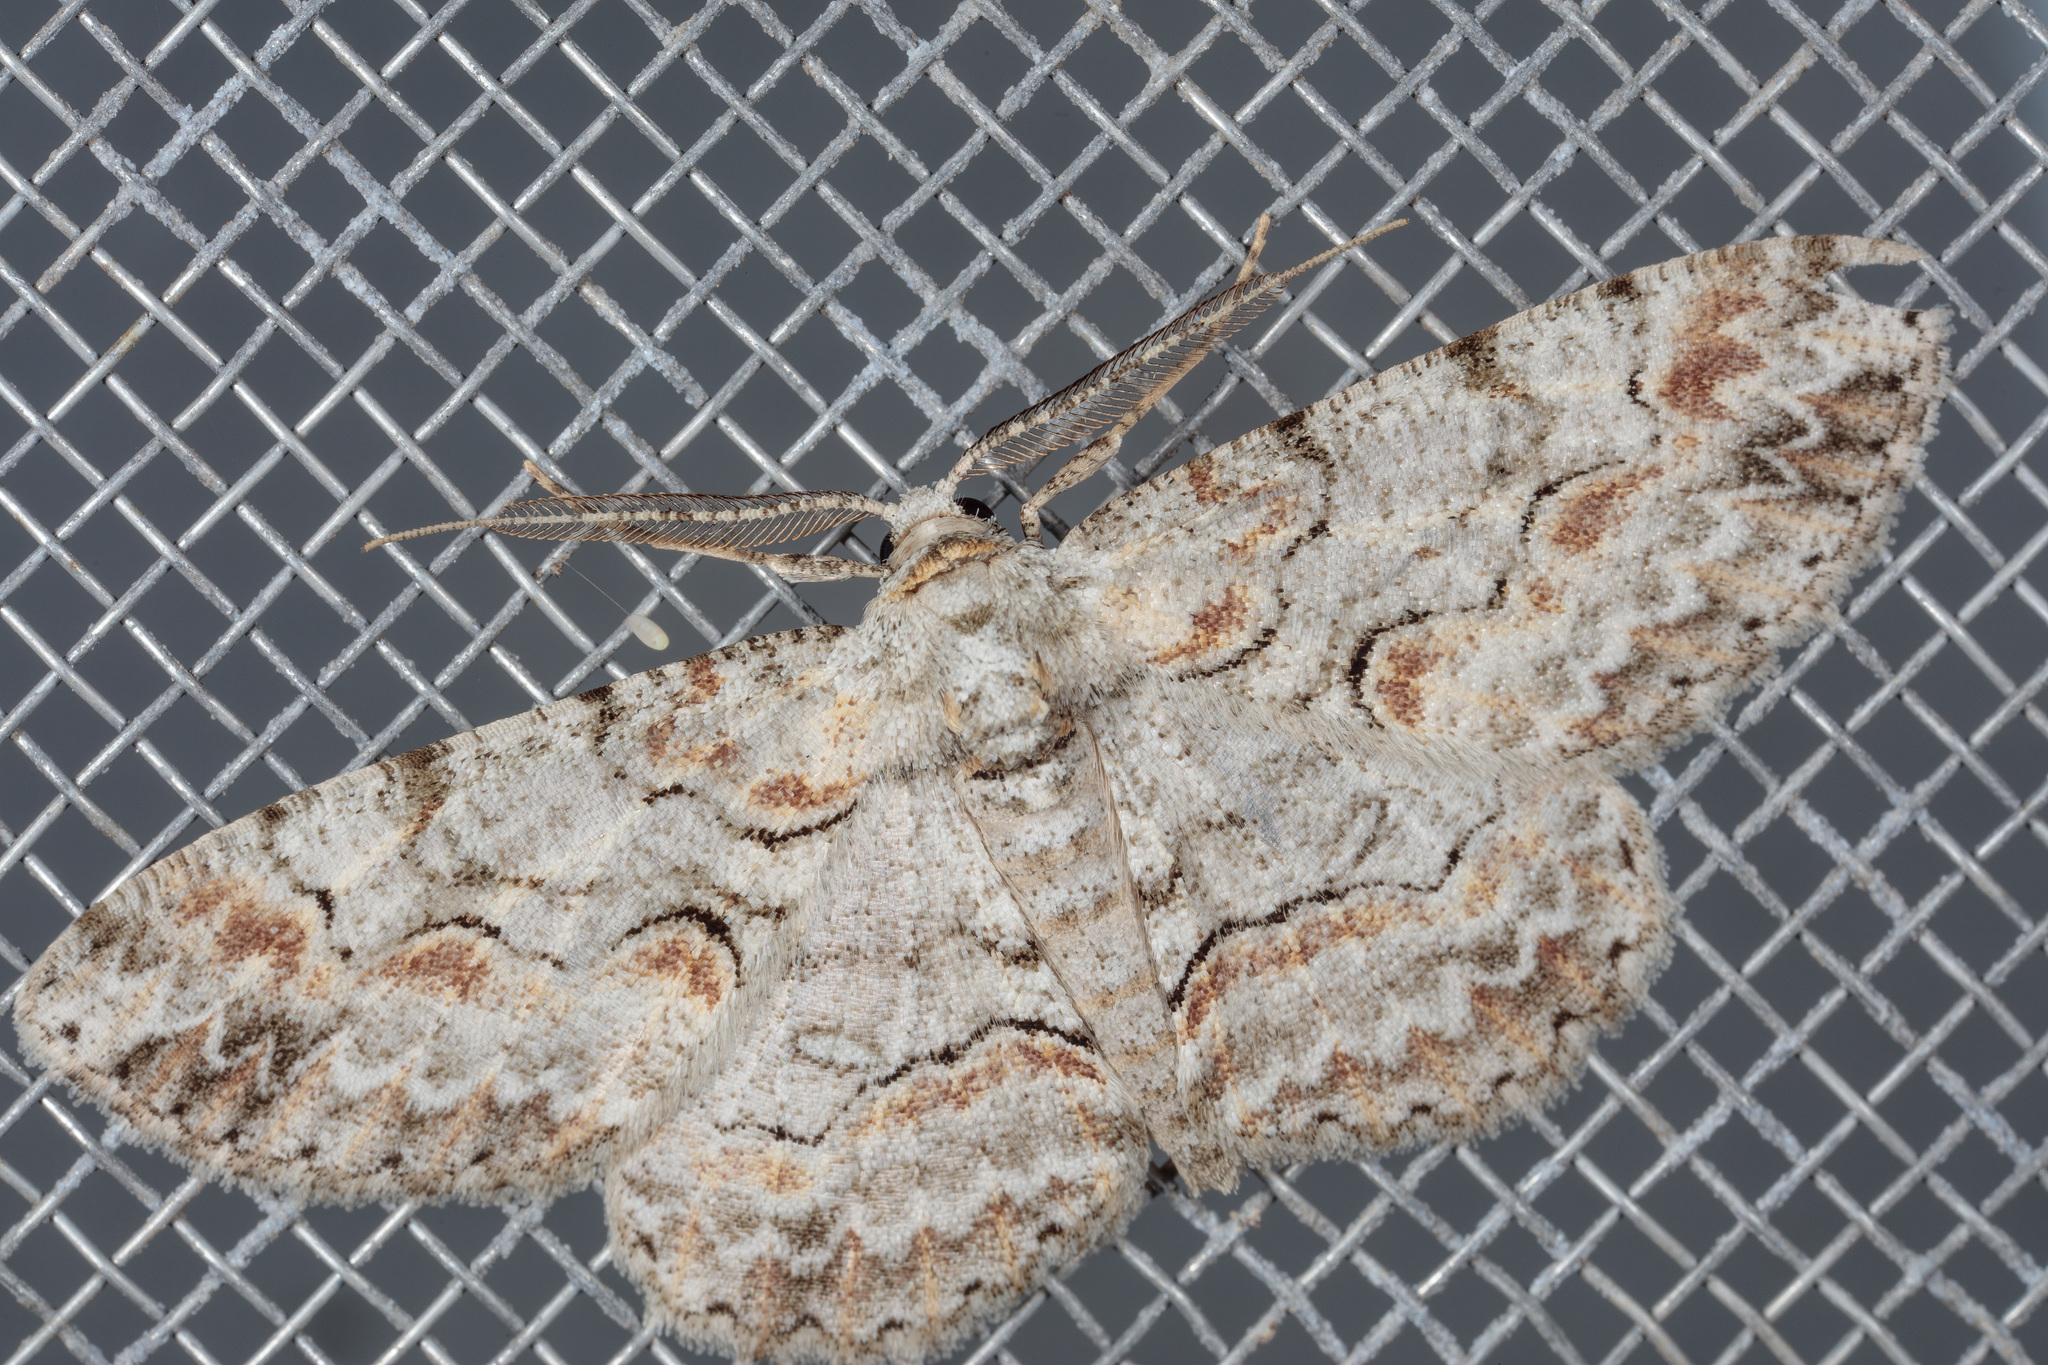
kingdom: Animalia
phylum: Arthropoda
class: Insecta
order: Lepidoptera
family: Geometridae
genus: Iridopsis
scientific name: Iridopsis defectaria
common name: Brown-shaded gray
